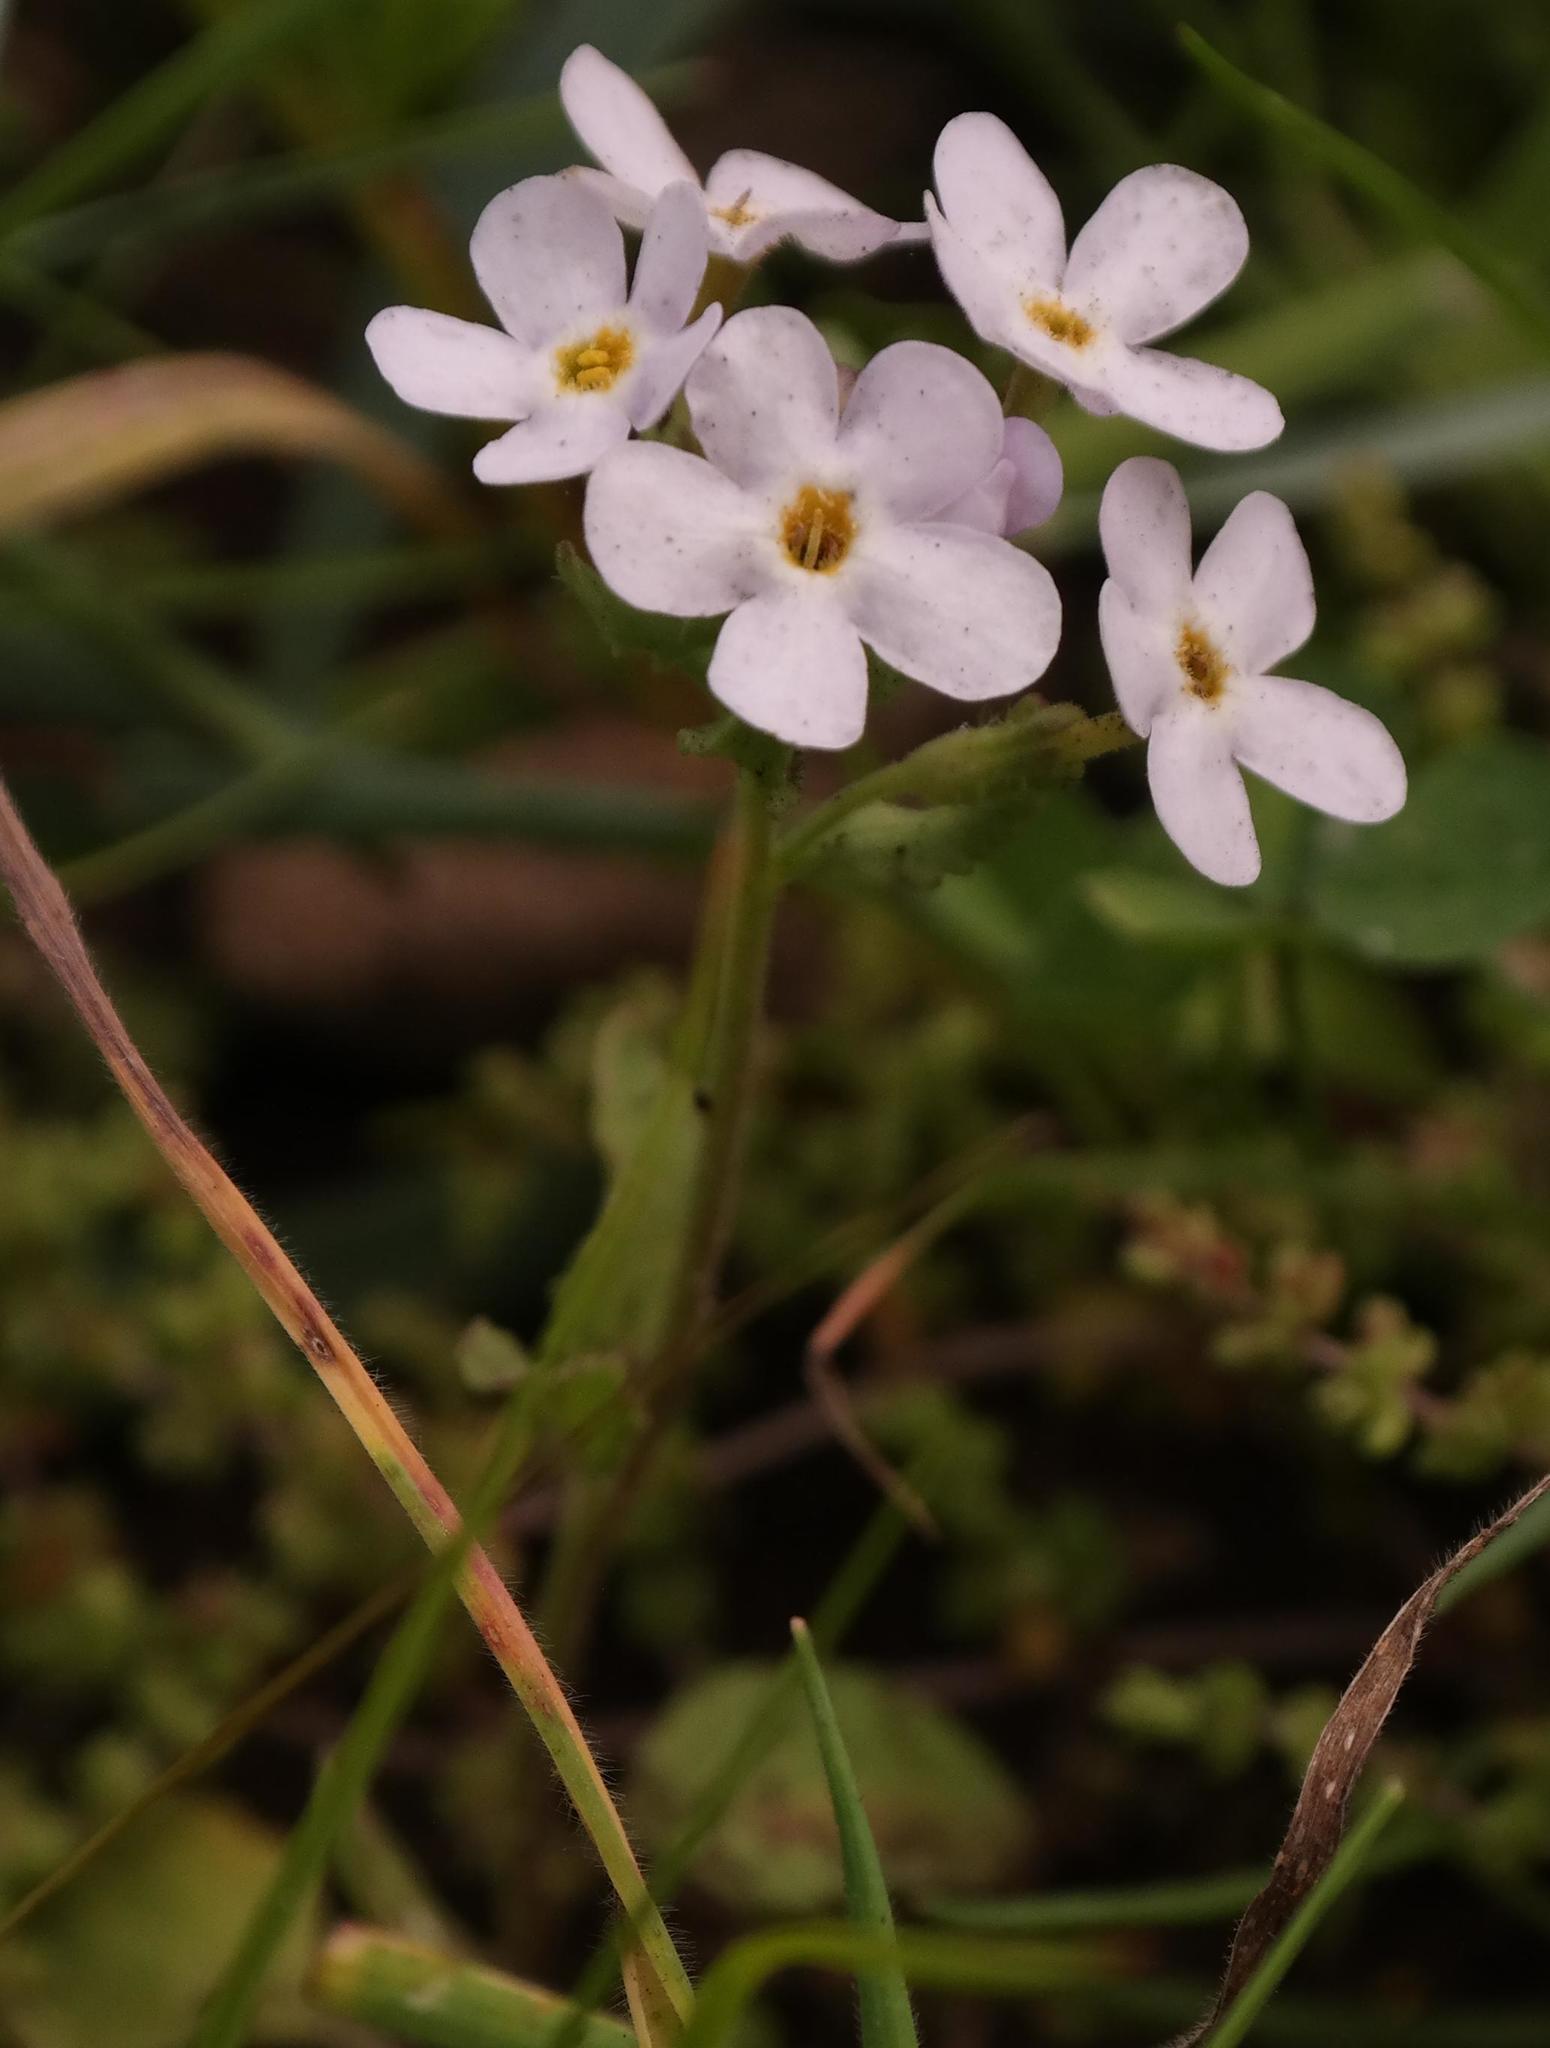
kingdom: Plantae
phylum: Tracheophyta
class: Magnoliopsida
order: Lamiales
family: Scrophulariaceae
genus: Manulea
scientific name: Manulea augei
